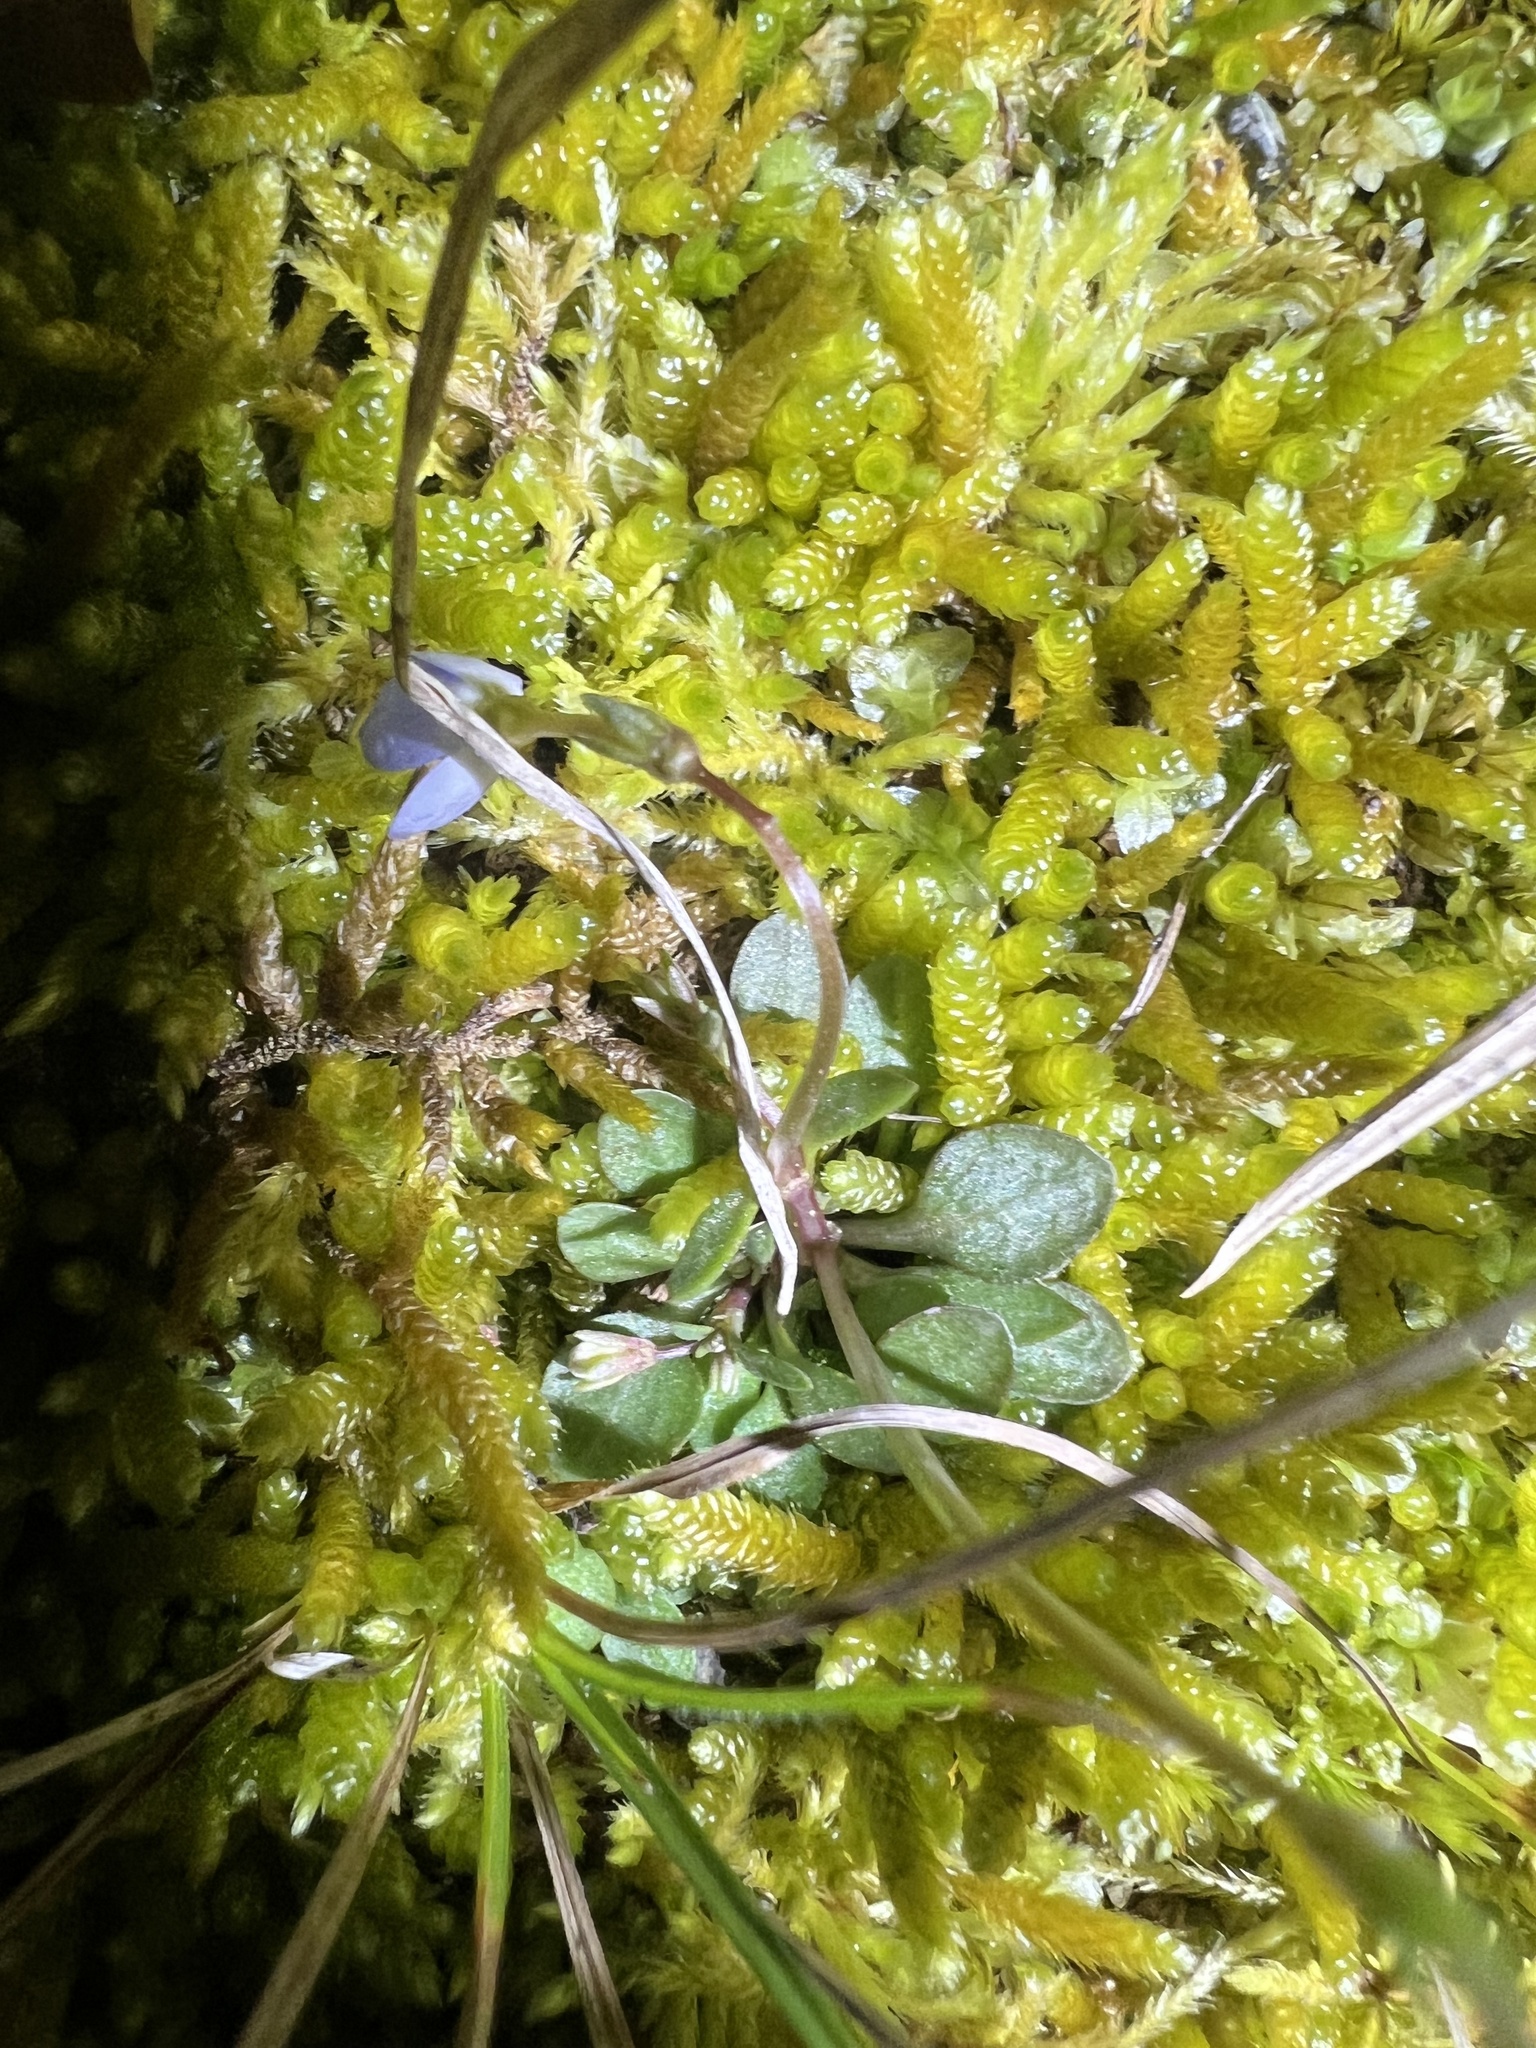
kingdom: Plantae
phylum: Tracheophyta
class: Magnoliopsida
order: Gentianales
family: Rubiaceae
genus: Houstonia
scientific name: Houstonia caerulea
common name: Bluets
